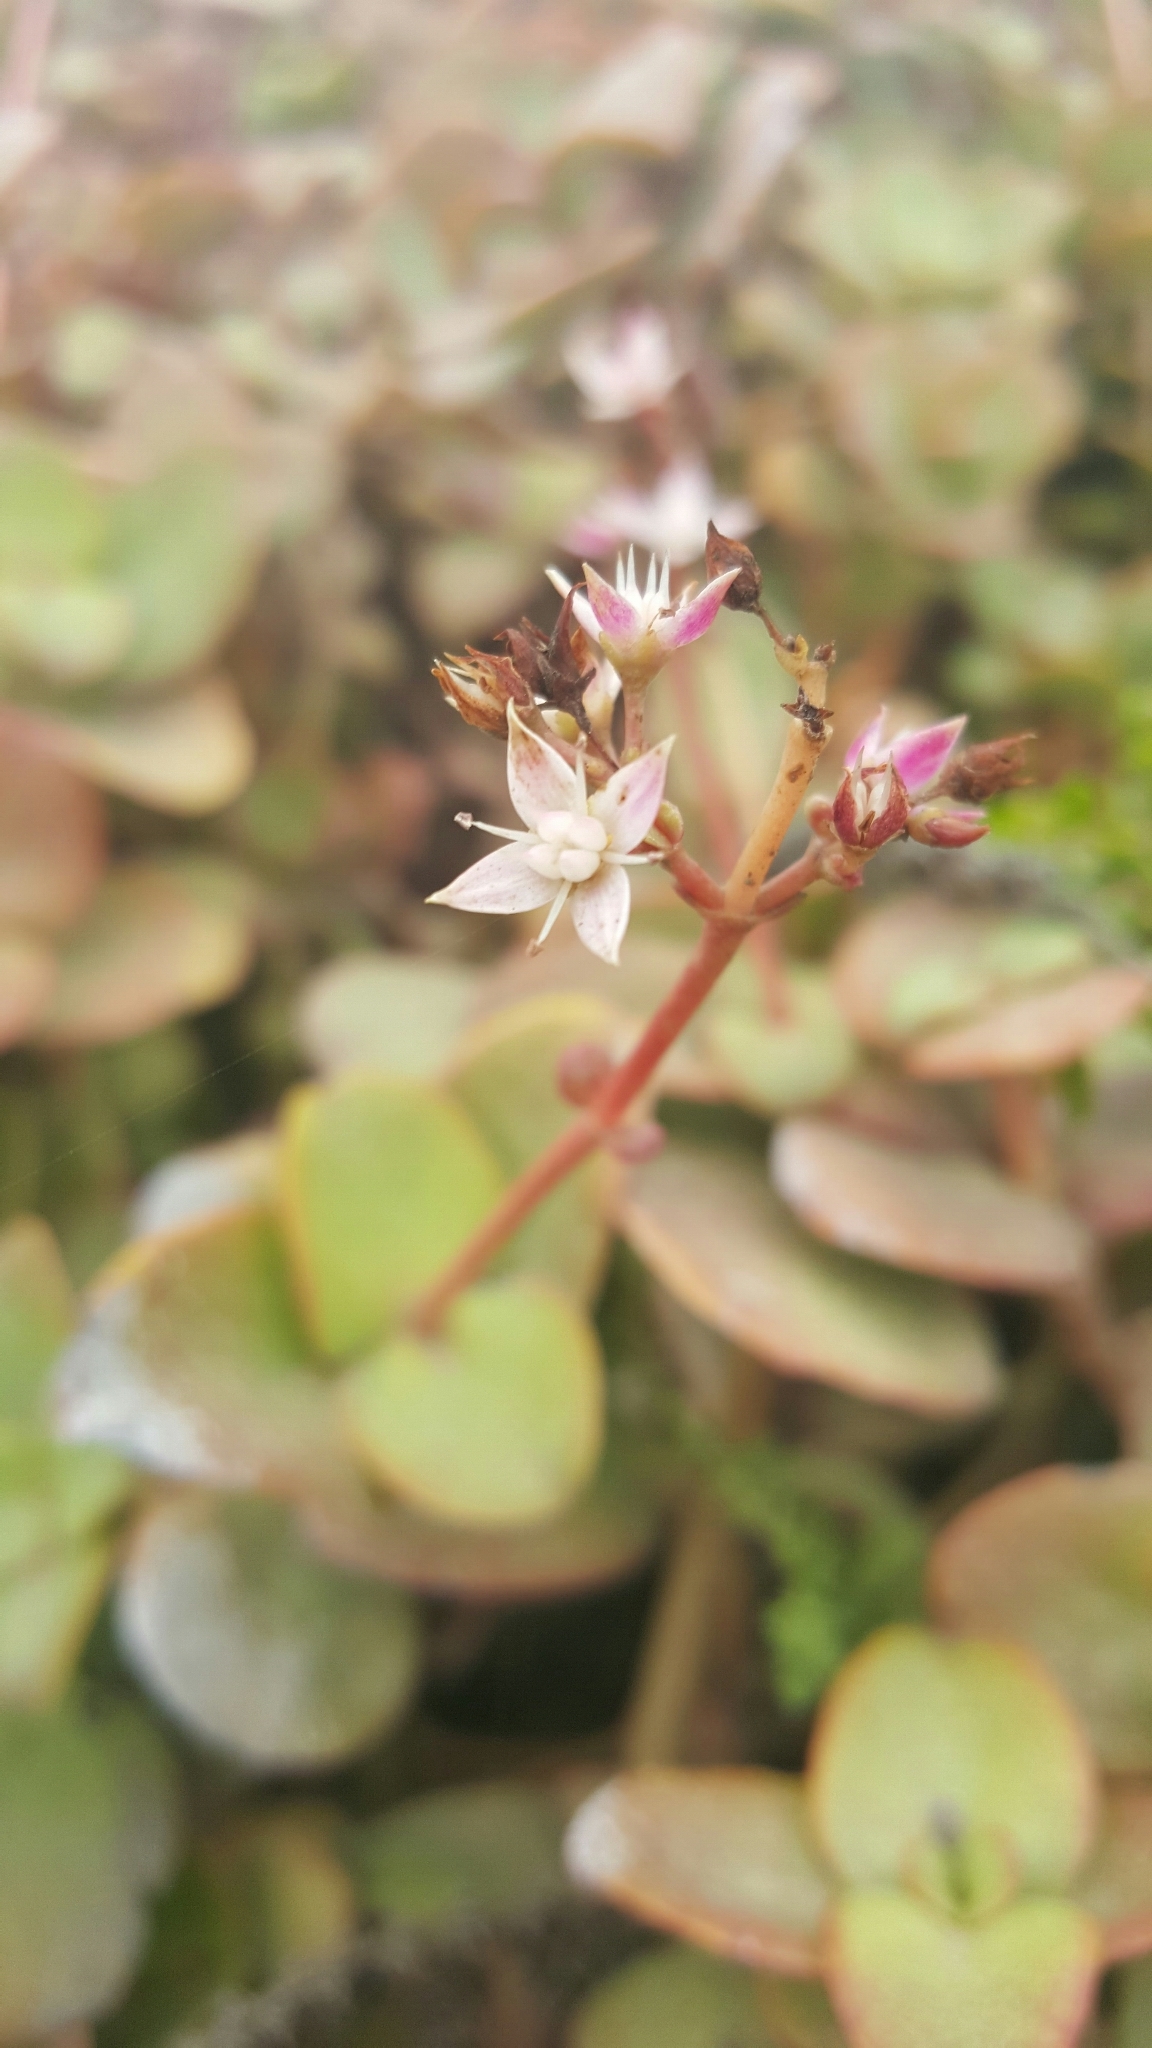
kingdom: Plantae
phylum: Tracheophyta
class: Magnoliopsida
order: Saxifragales
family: Crassulaceae
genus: Crassula
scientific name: Crassula multicava
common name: Cape province pygmyweed
